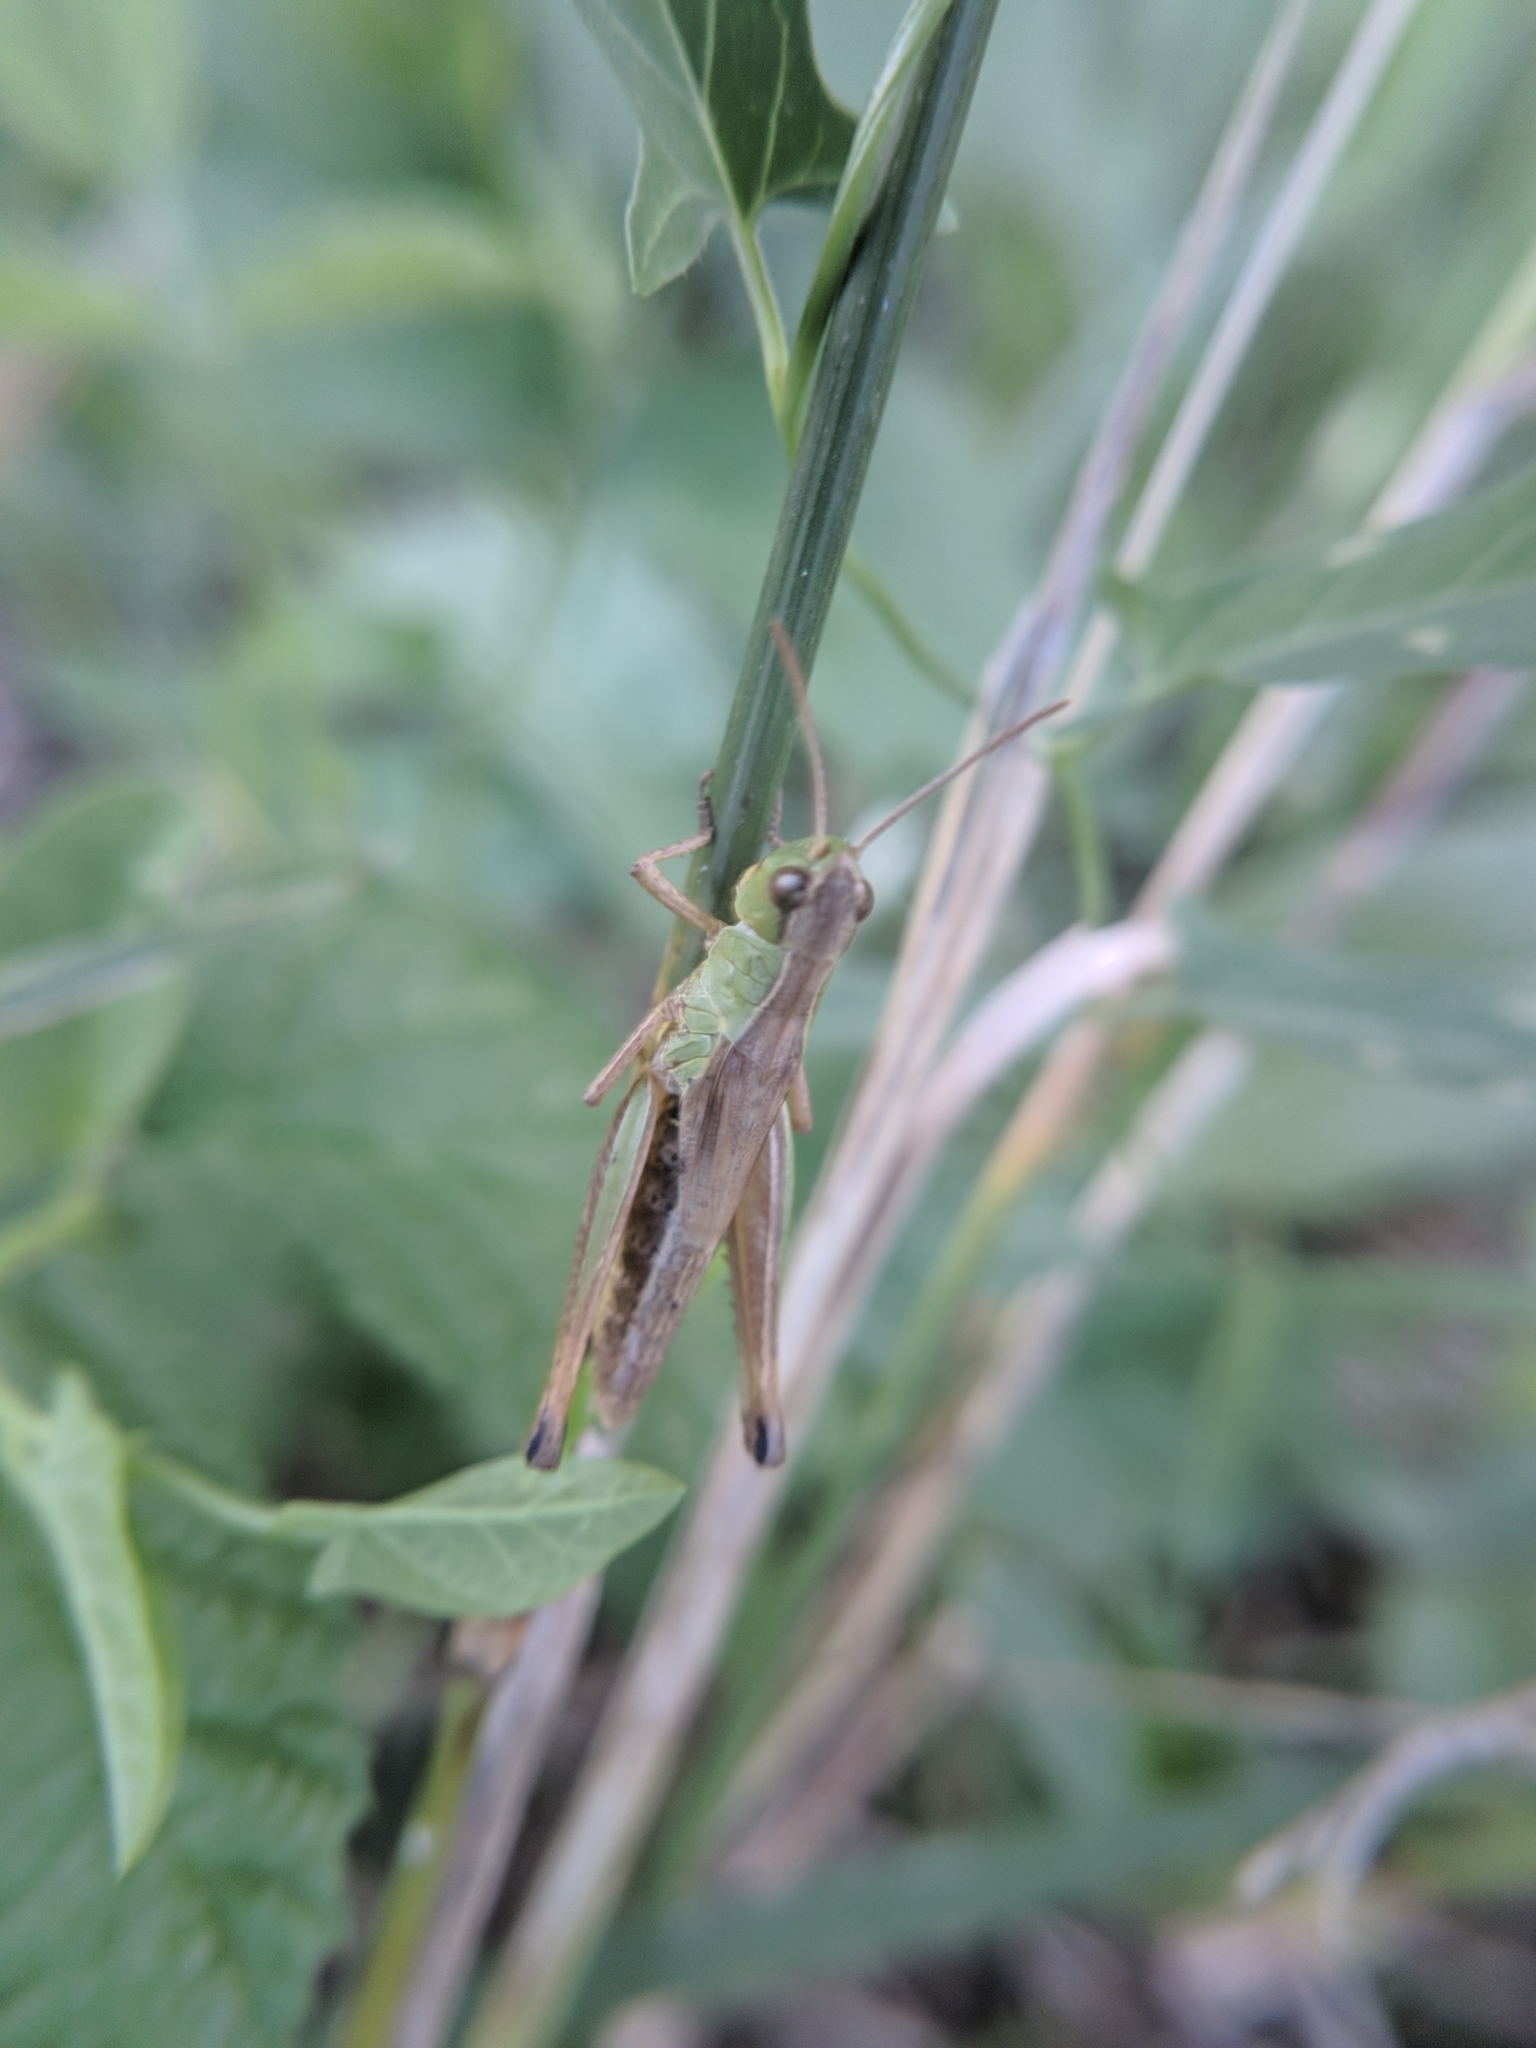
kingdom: Animalia
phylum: Arthropoda
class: Insecta
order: Orthoptera
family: Acrididae
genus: Pseudochorthippus
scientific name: Pseudochorthippus parallelus
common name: Meadow grasshopper
